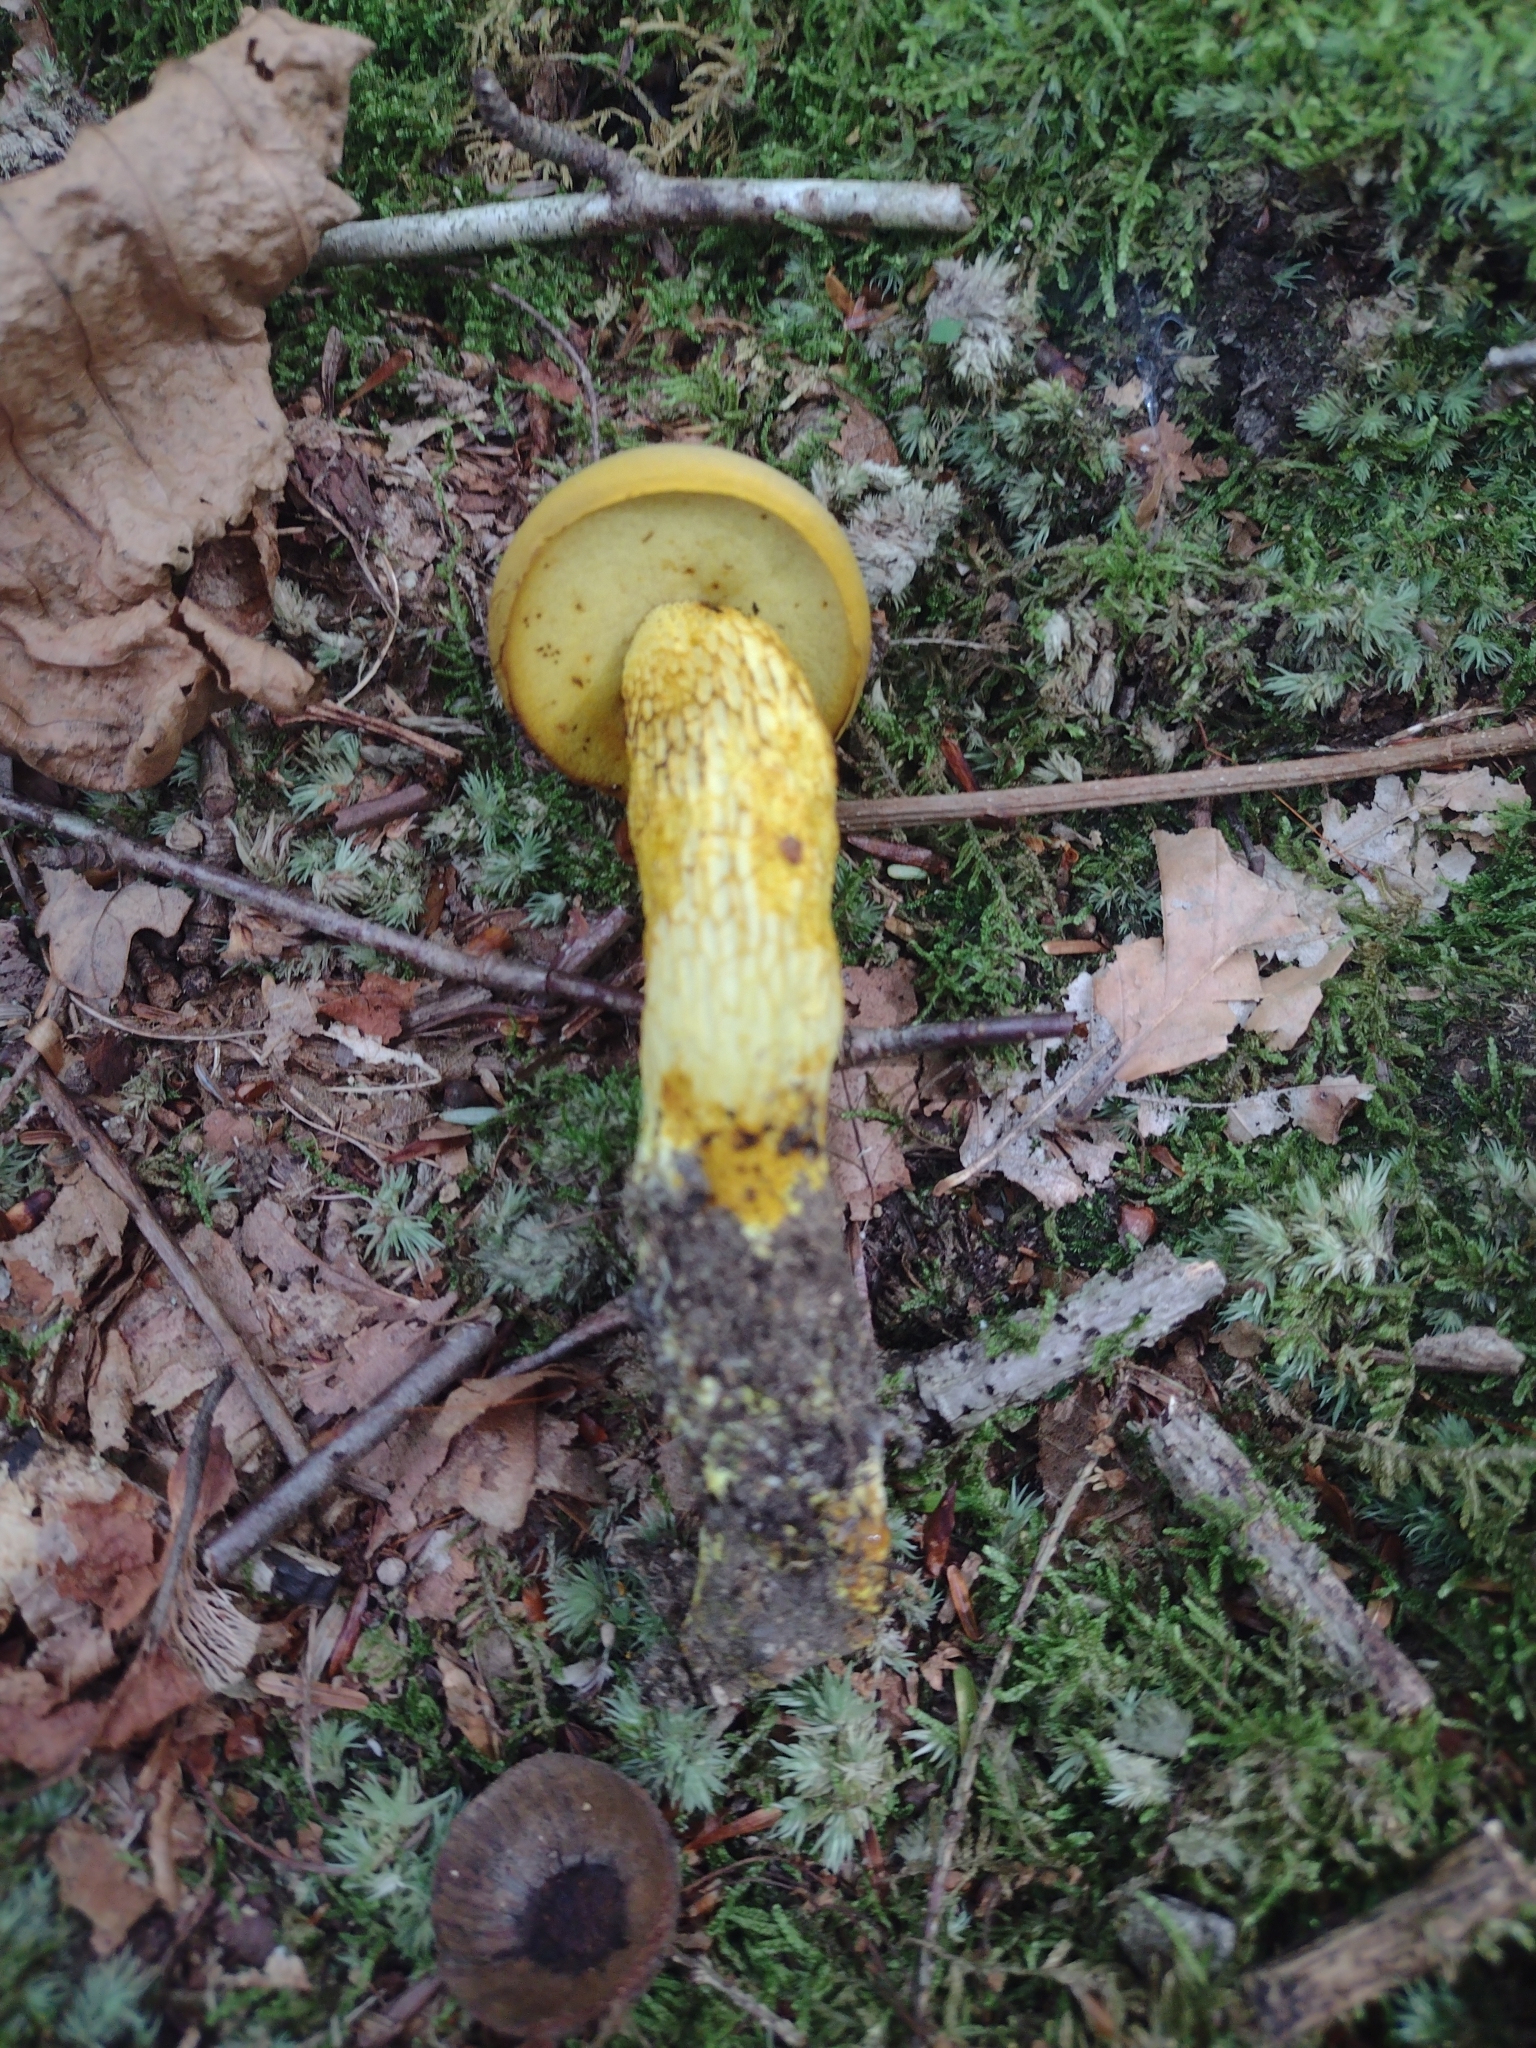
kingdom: Fungi
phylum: Basidiomycota
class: Agaricomycetes
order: Boletales
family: Boletaceae
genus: Retiboletus
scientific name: Retiboletus ornatipes
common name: Ornate-stalked bolete
